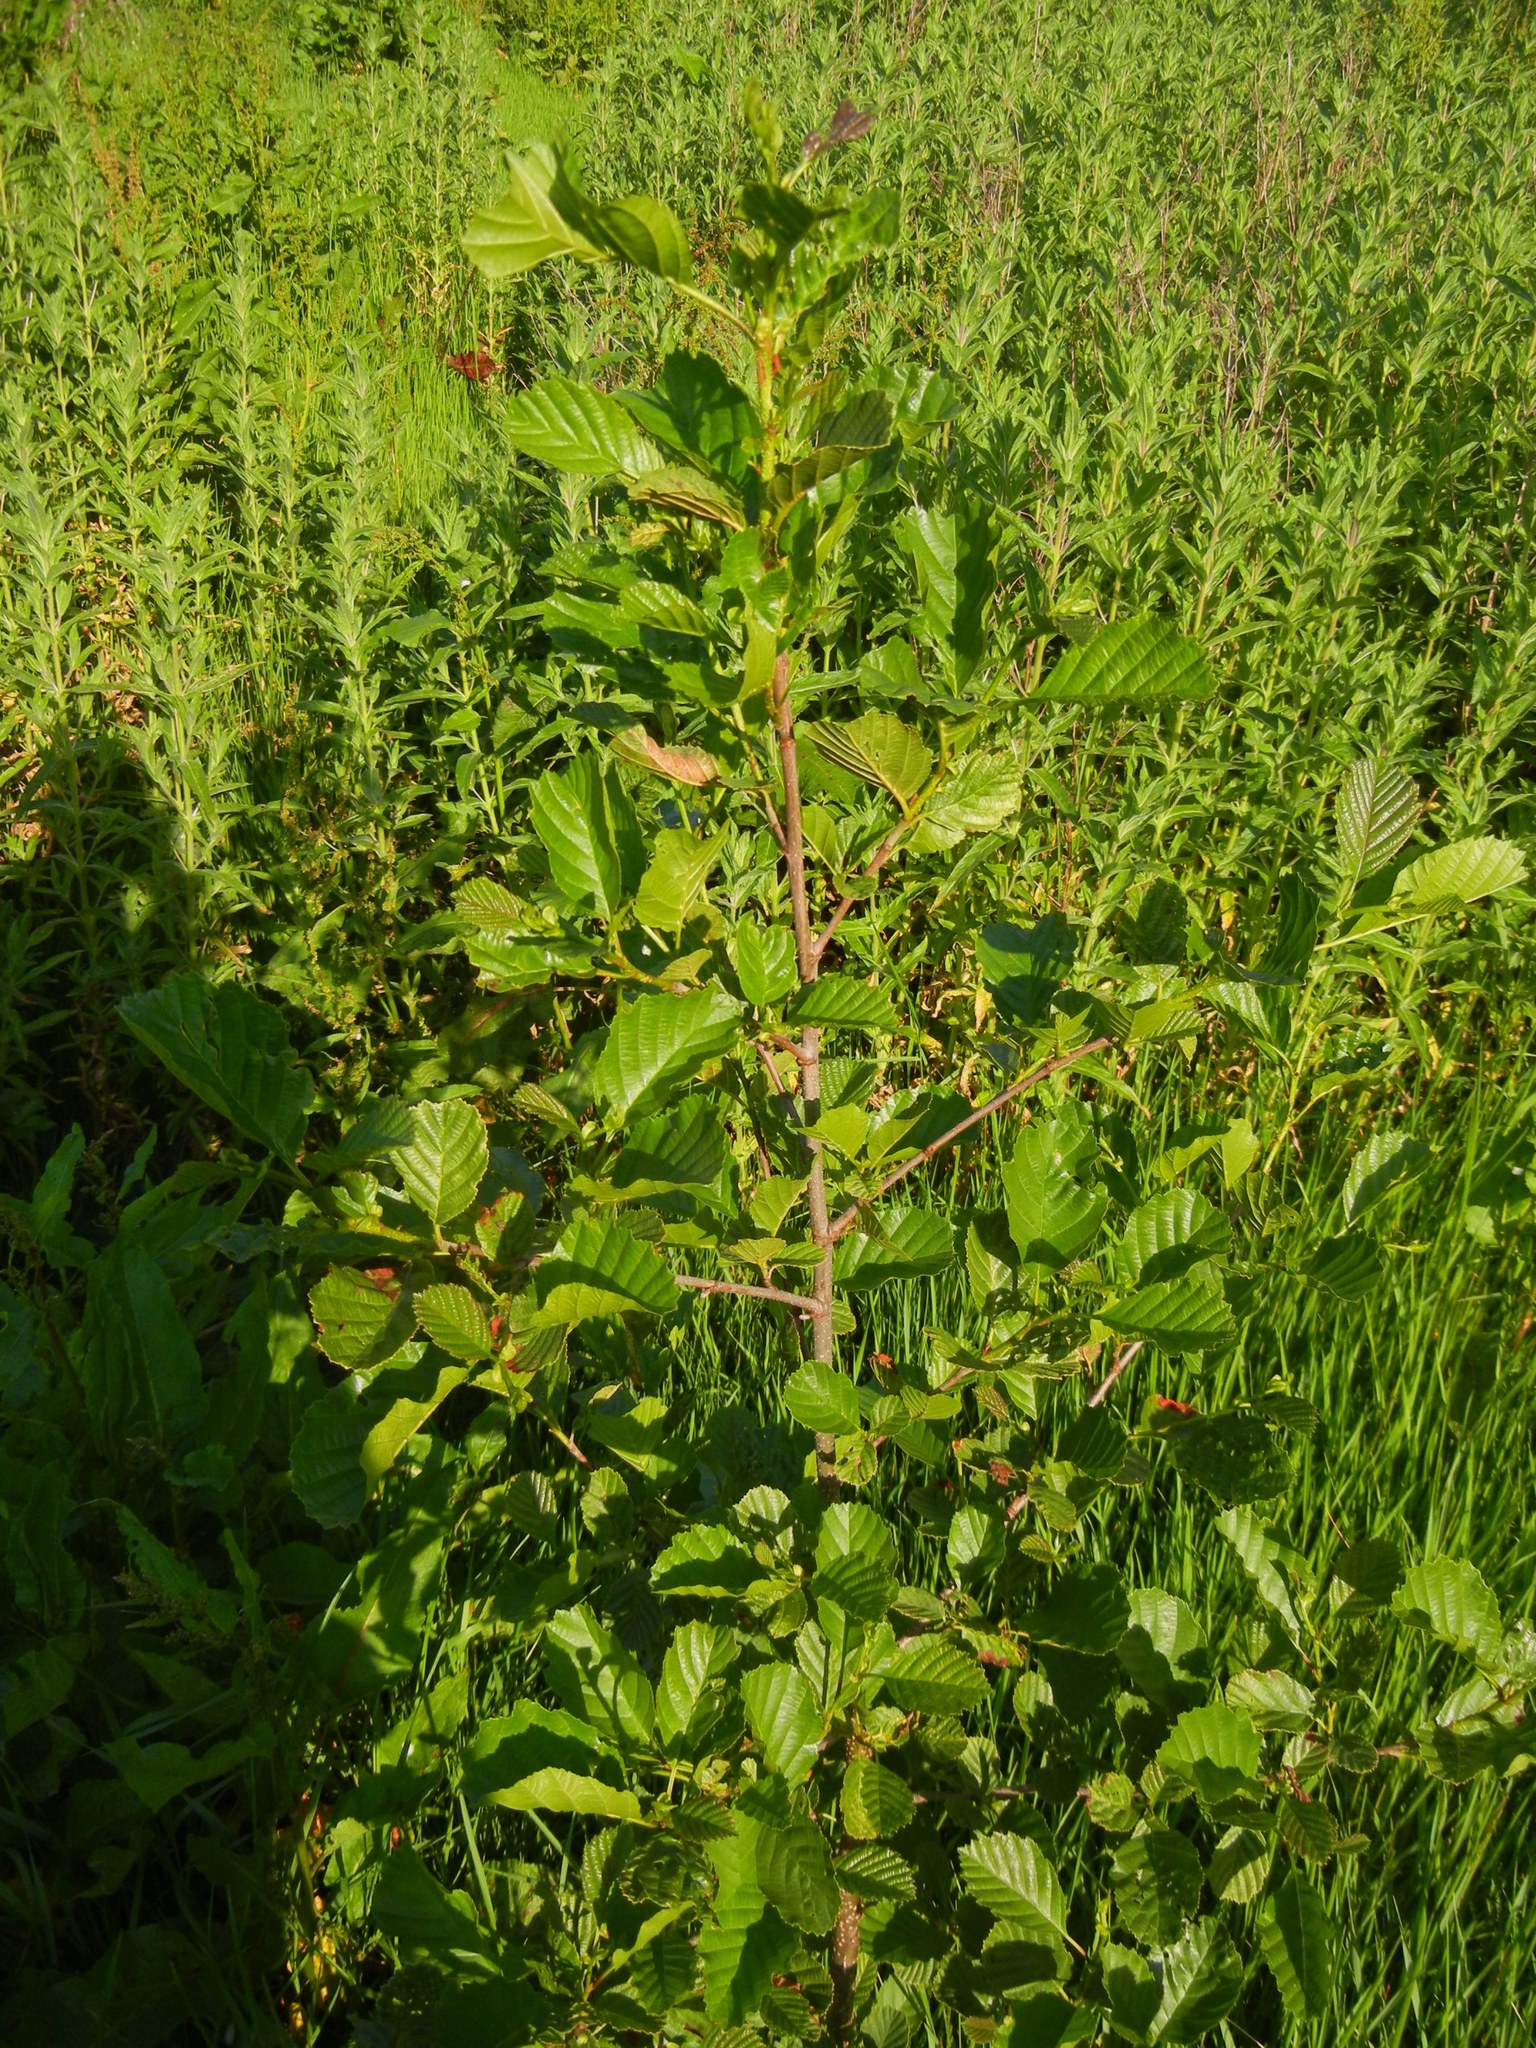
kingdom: Plantae
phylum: Tracheophyta
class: Magnoliopsida
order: Fagales
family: Betulaceae
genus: Alnus
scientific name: Alnus glutinosa
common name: Black alder
